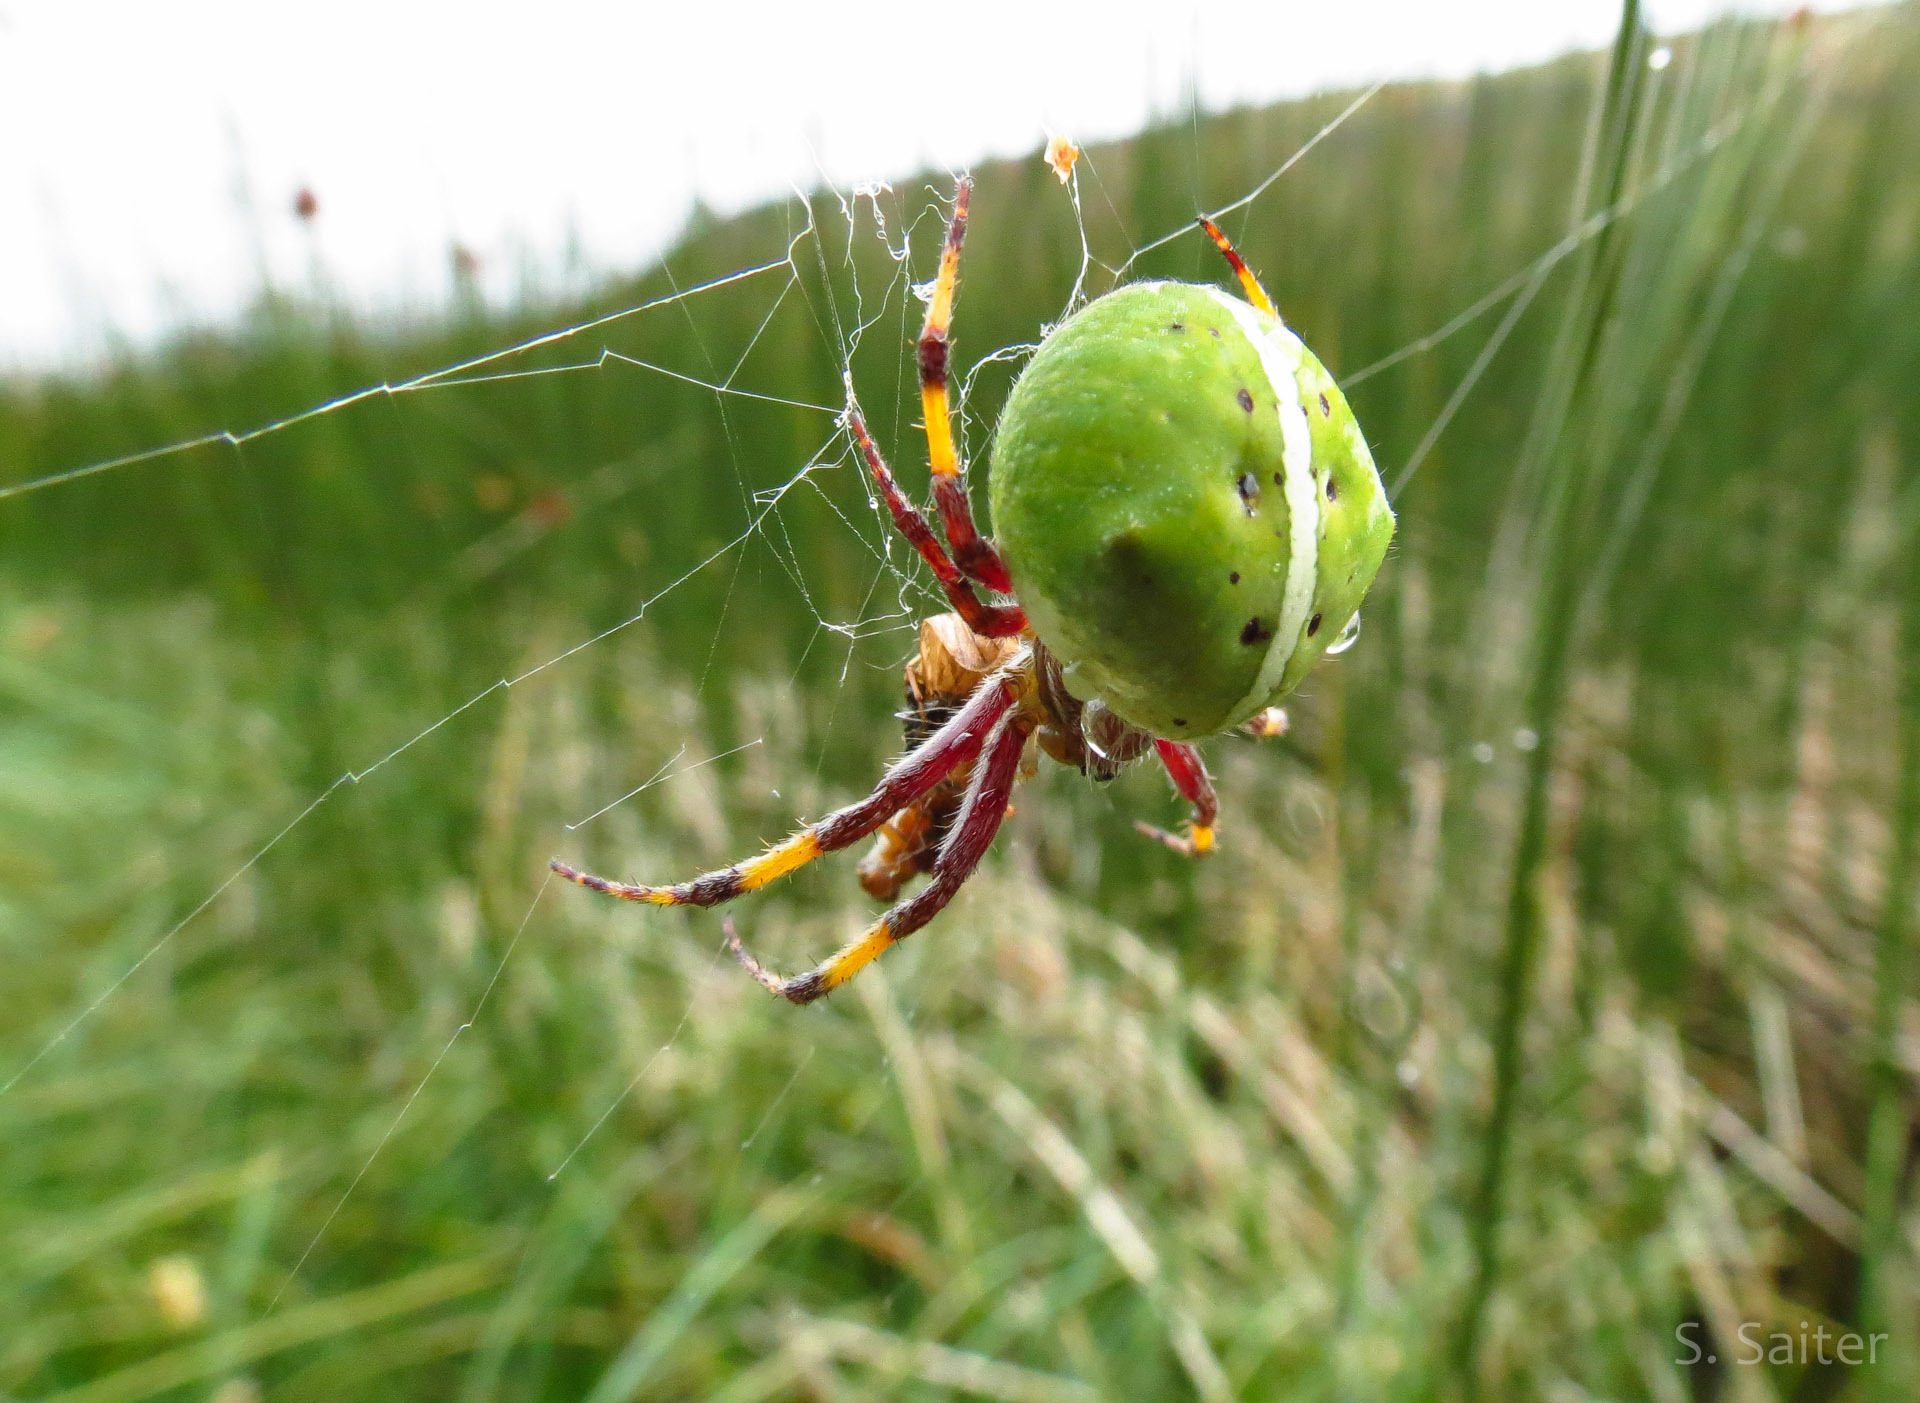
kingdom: Animalia
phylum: Arthropoda
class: Arachnida
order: Araneae
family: Araneidae
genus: Molinaranea
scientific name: Molinaranea magellanica
